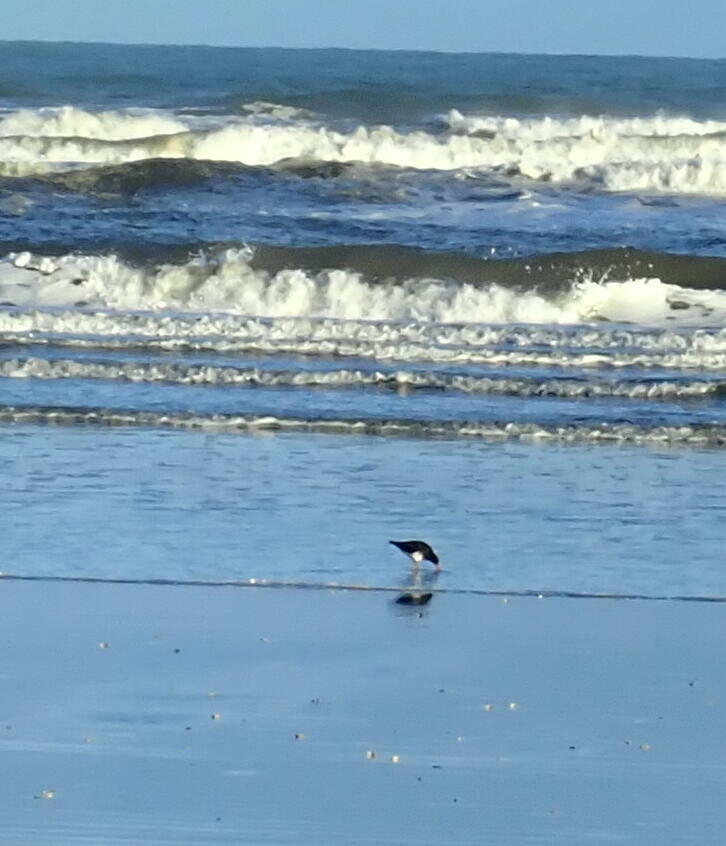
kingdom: Animalia
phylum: Chordata
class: Aves
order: Charadriiformes
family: Haematopodidae
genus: Haematopus
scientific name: Haematopus finschi
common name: South island oystercatcher
